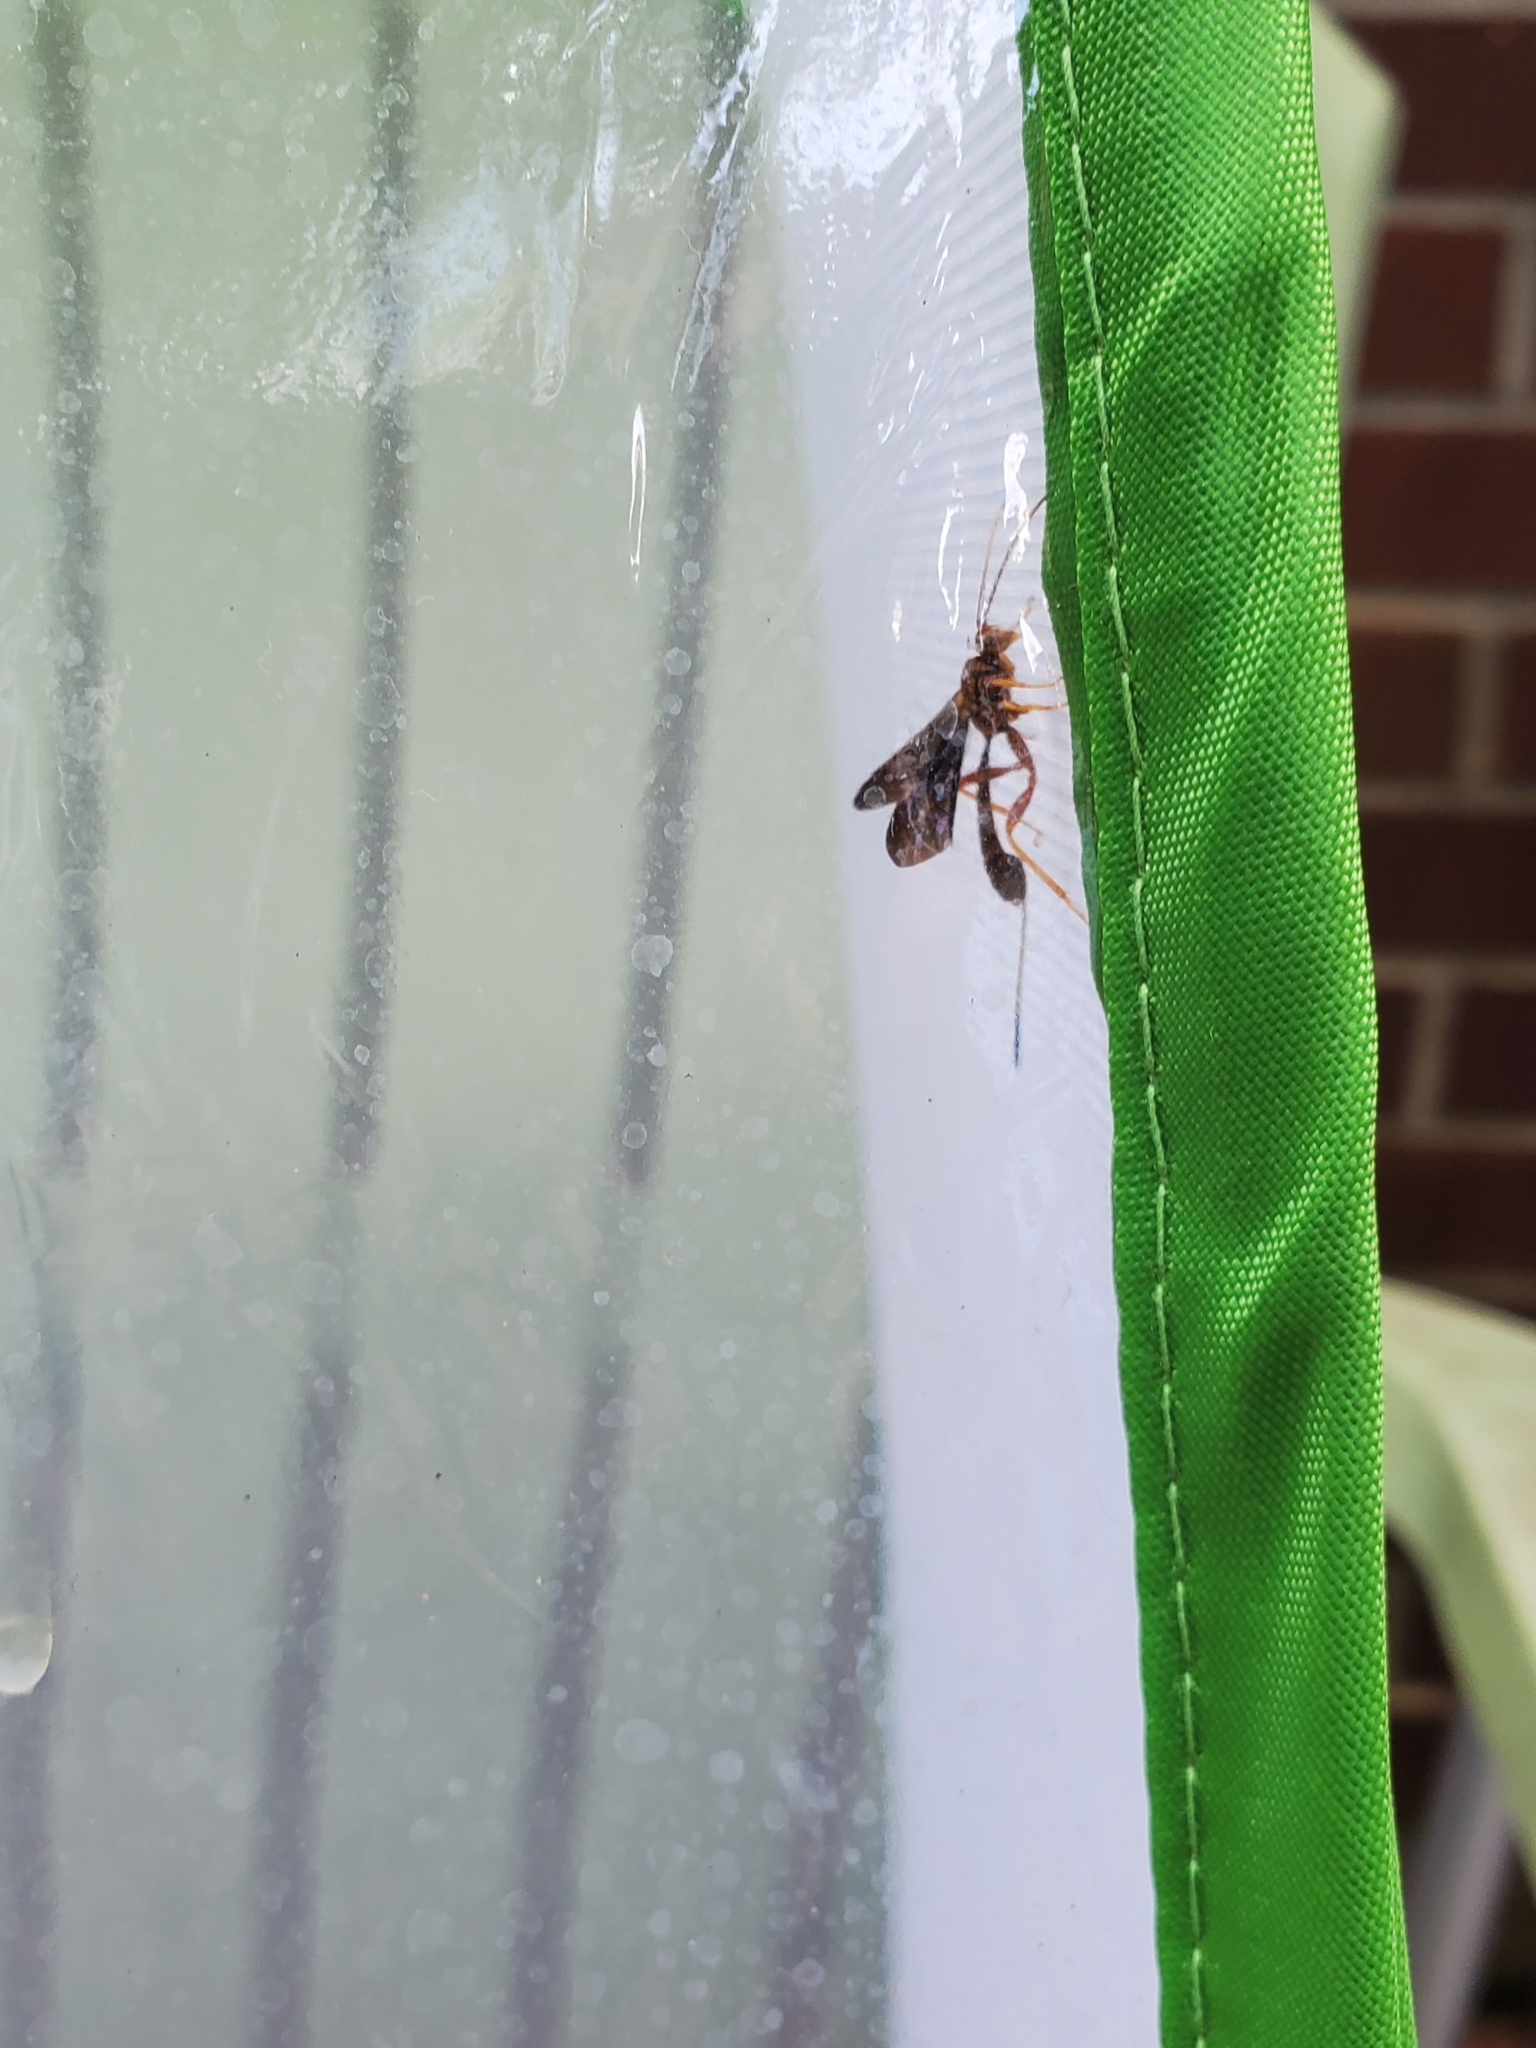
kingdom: Animalia
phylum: Arthropoda
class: Insecta
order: Hymenoptera
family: Ichneumonidae
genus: Labena
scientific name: Labena grallator
